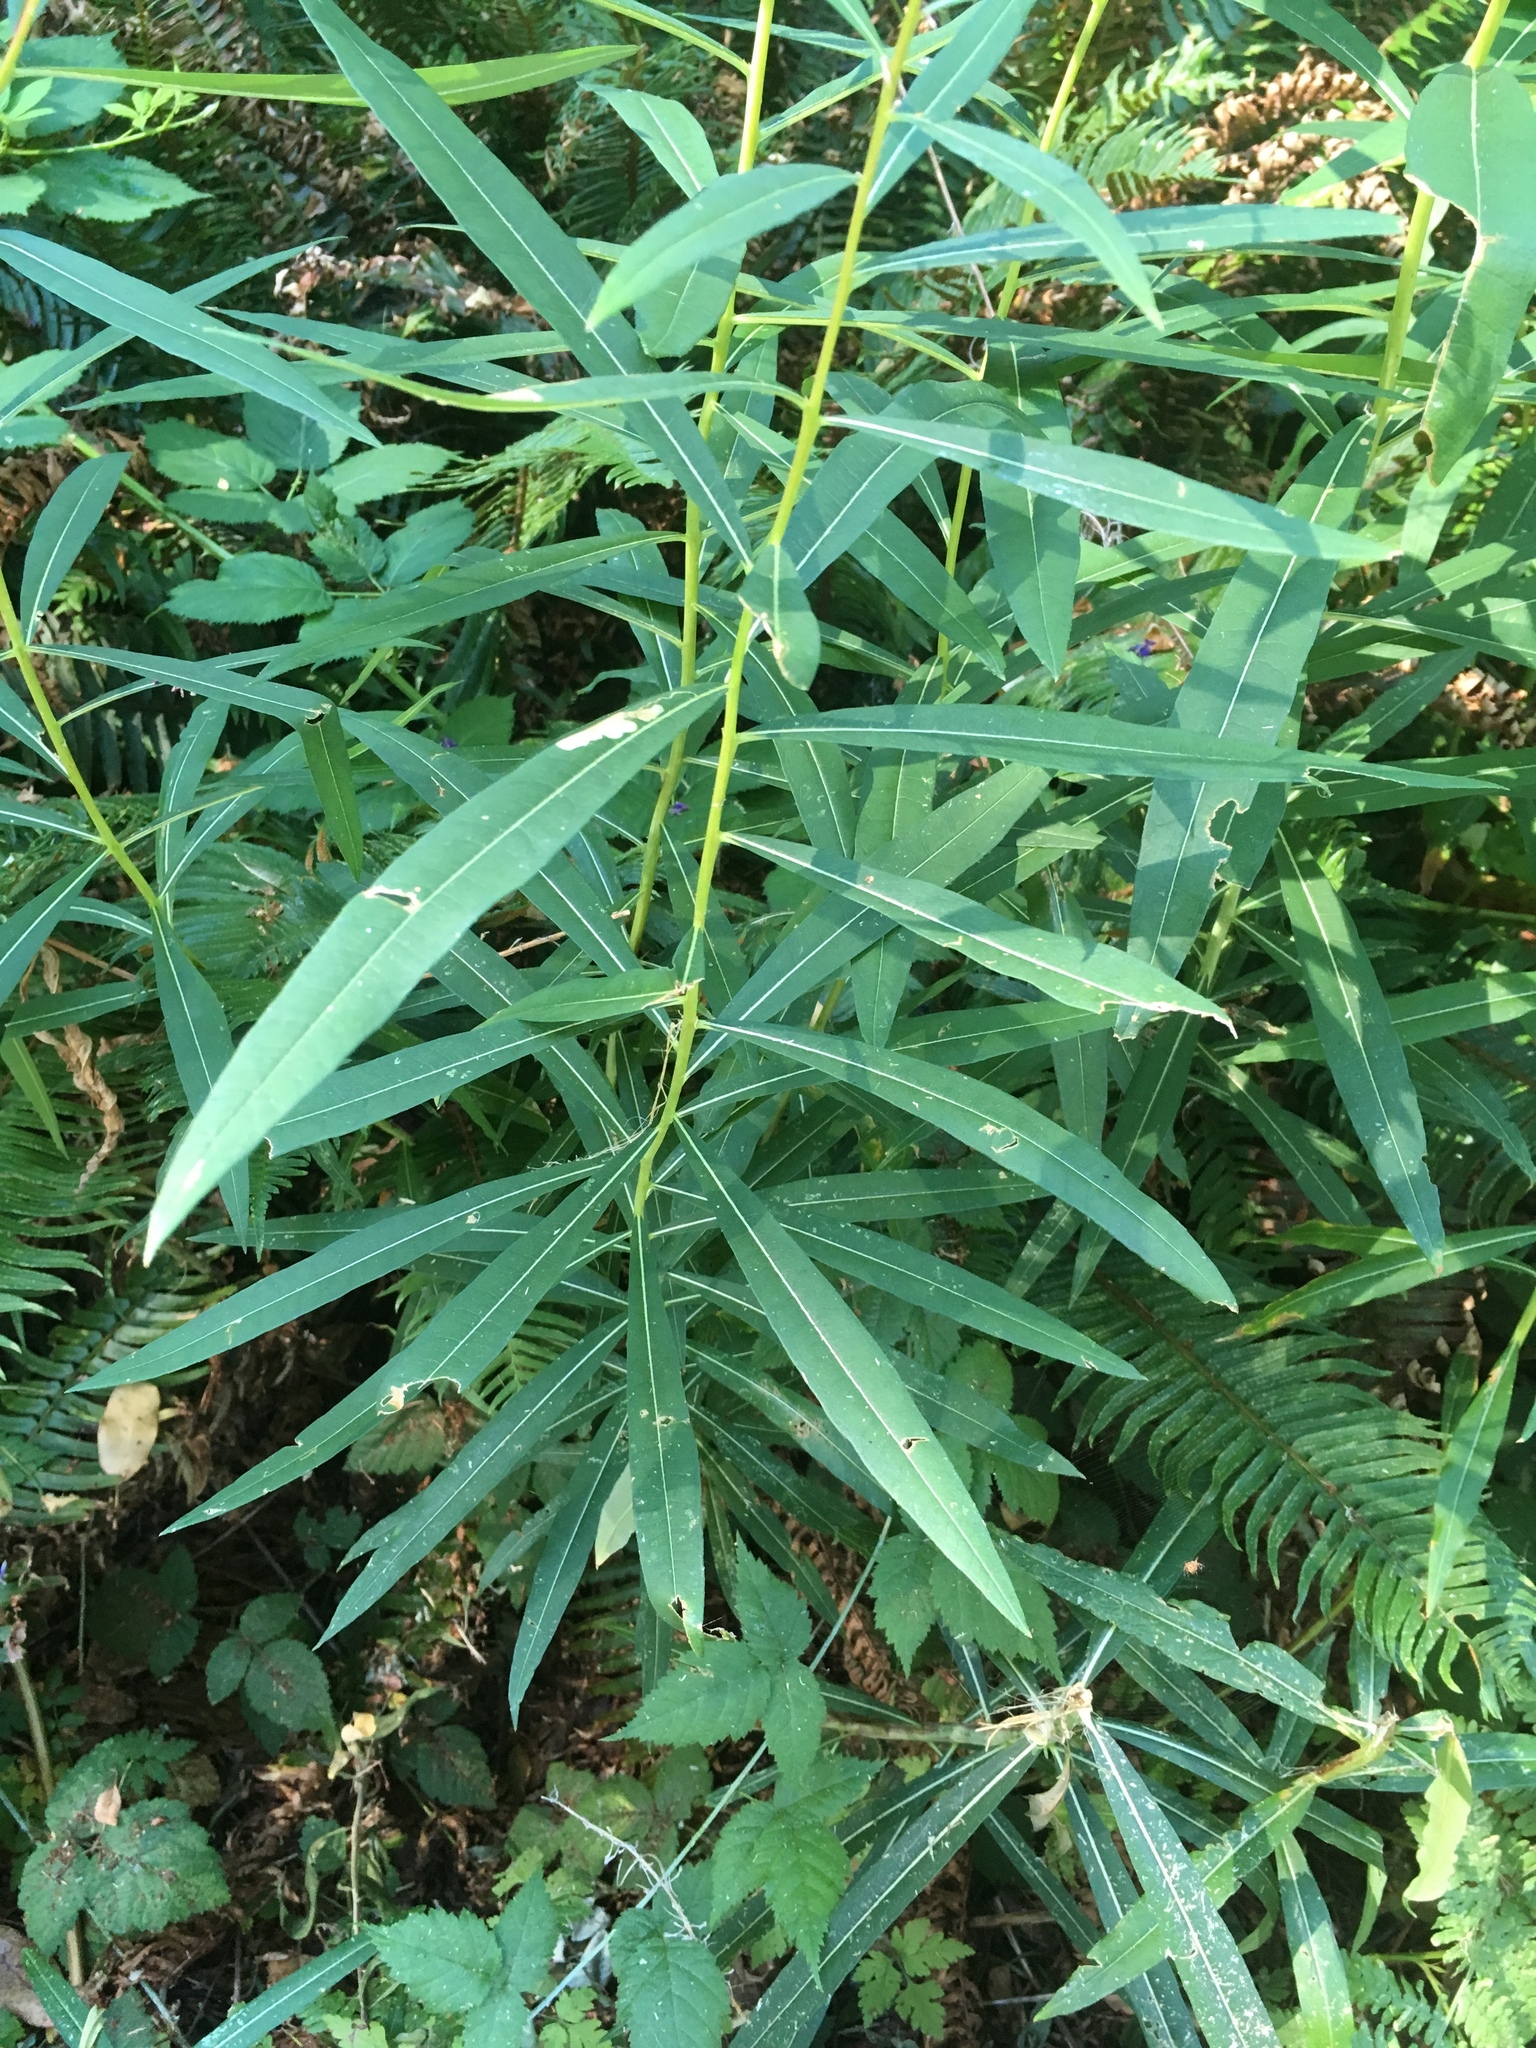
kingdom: Plantae
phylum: Tracheophyta
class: Magnoliopsida
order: Myrtales
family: Onagraceae
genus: Chamaenerion
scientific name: Chamaenerion angustifolium
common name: Fireweed
